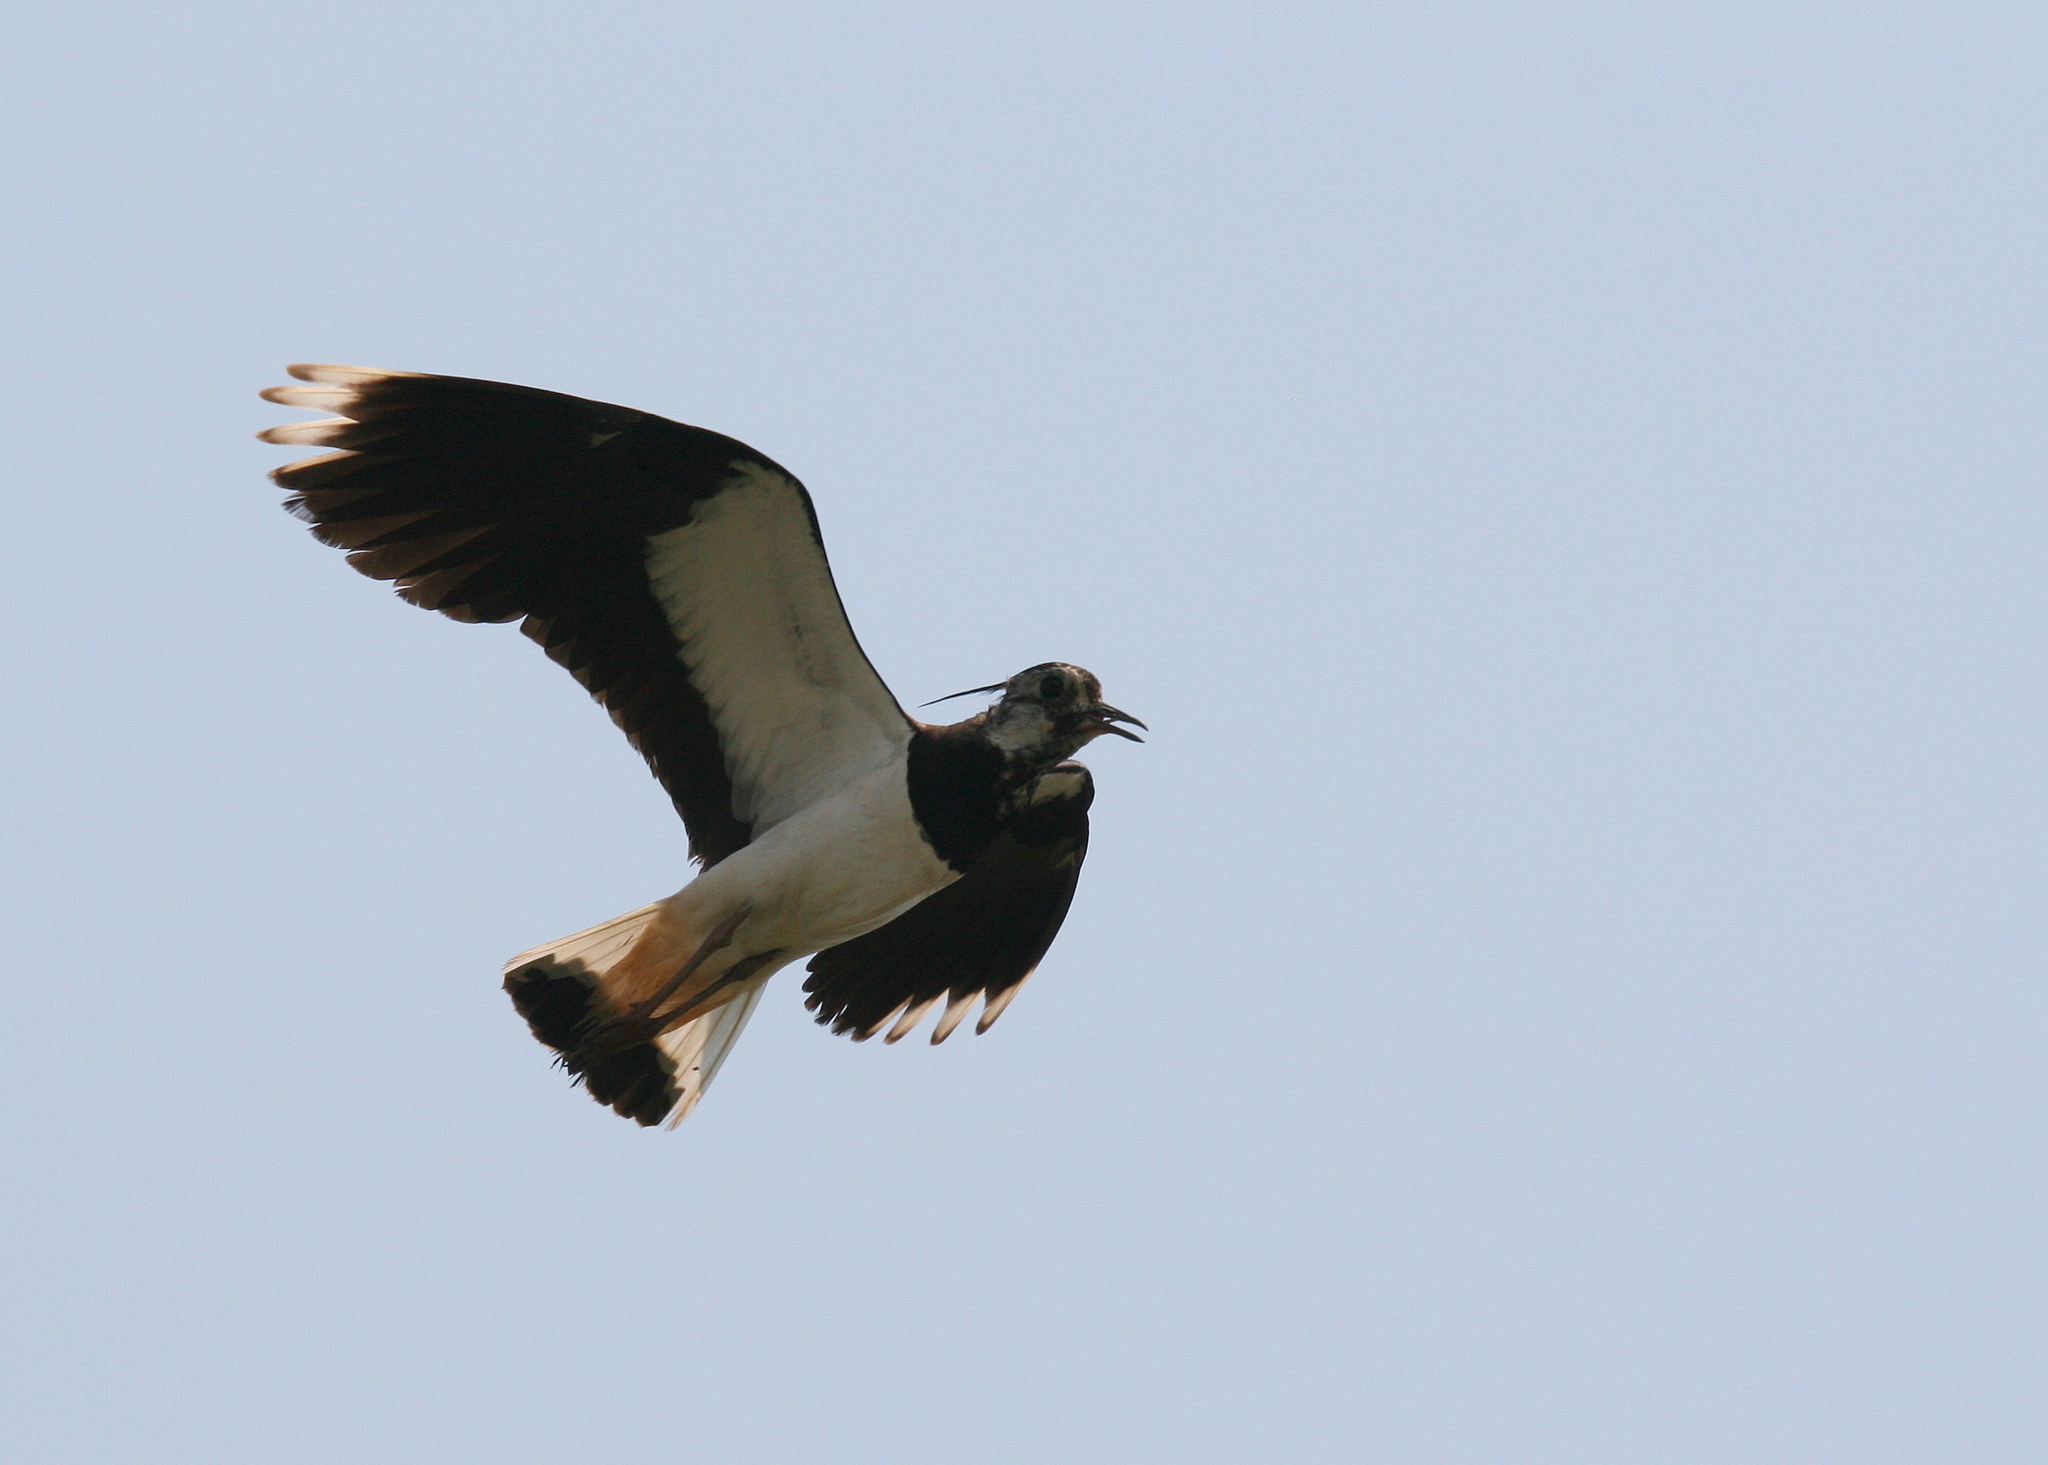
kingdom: Animalia
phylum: Chordata
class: Aves
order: Charadriiformes
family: Charadriidae
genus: Vanellus
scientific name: Vanellus vanellus
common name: Northern lapwing
